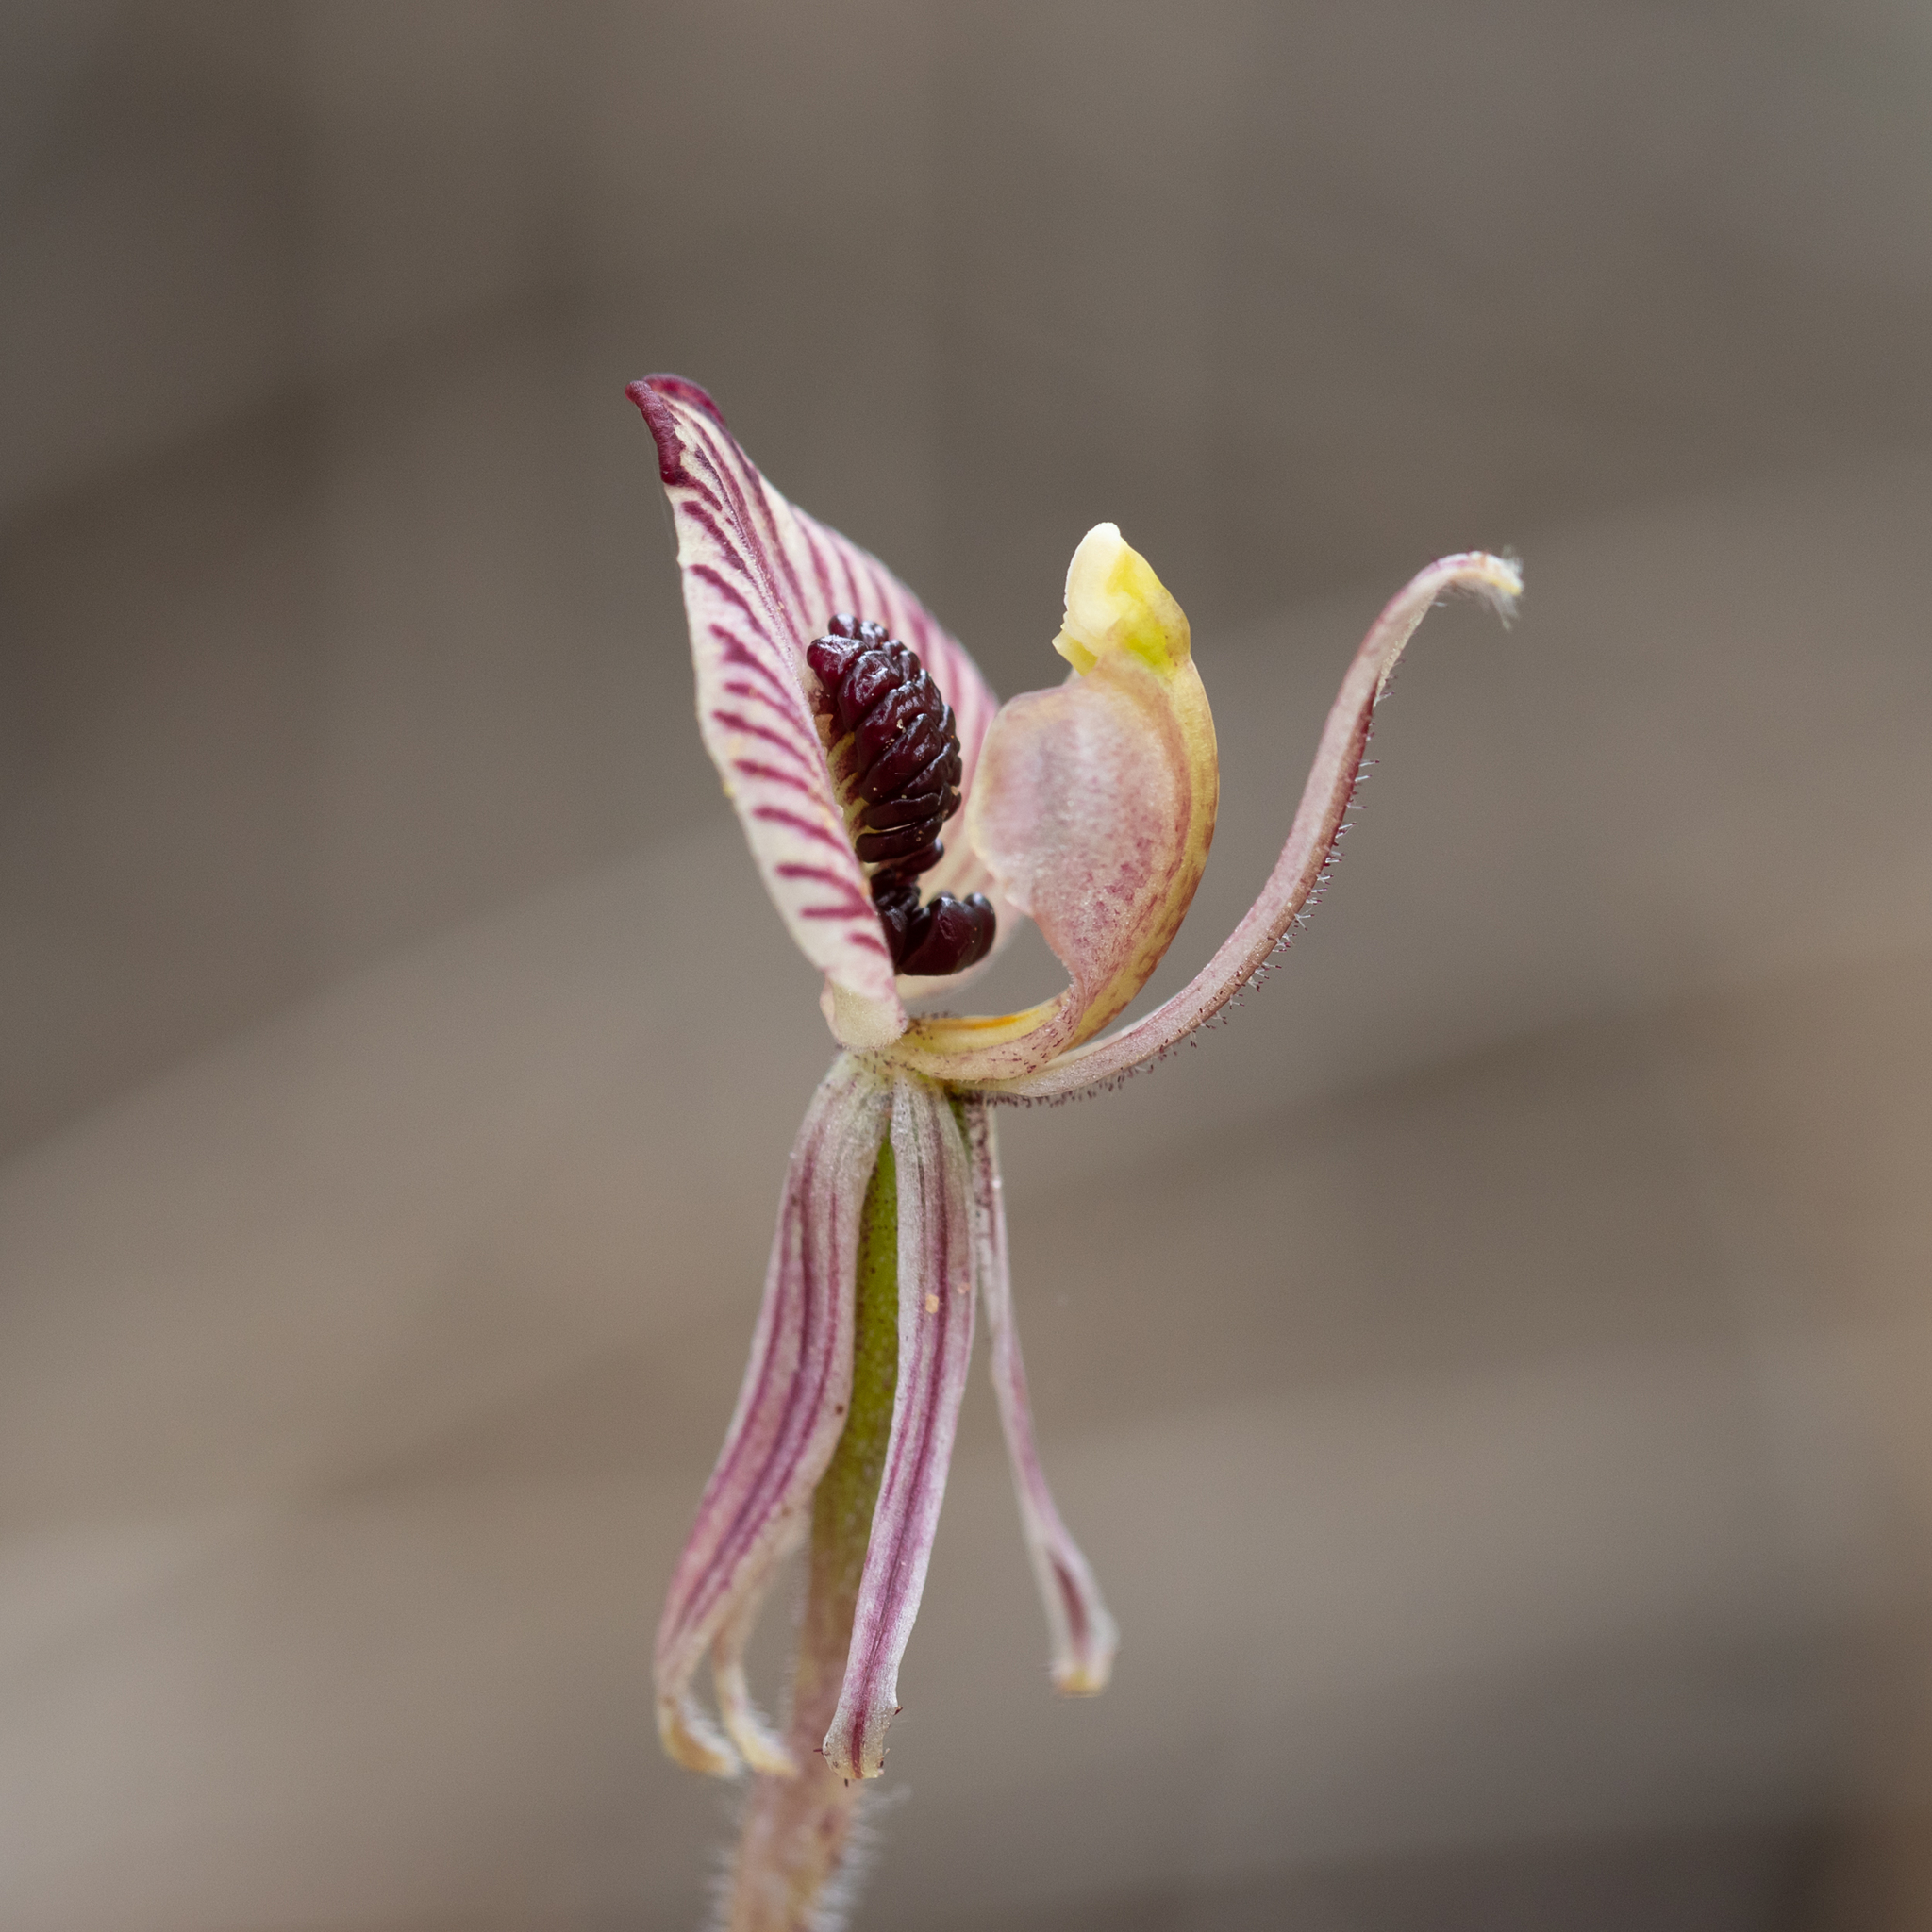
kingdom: Plantae
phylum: Tracheophyta
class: Liliopsida
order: Asparagales
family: Orchidaceae
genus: Caladenia
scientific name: Caladenia cairnsiana
